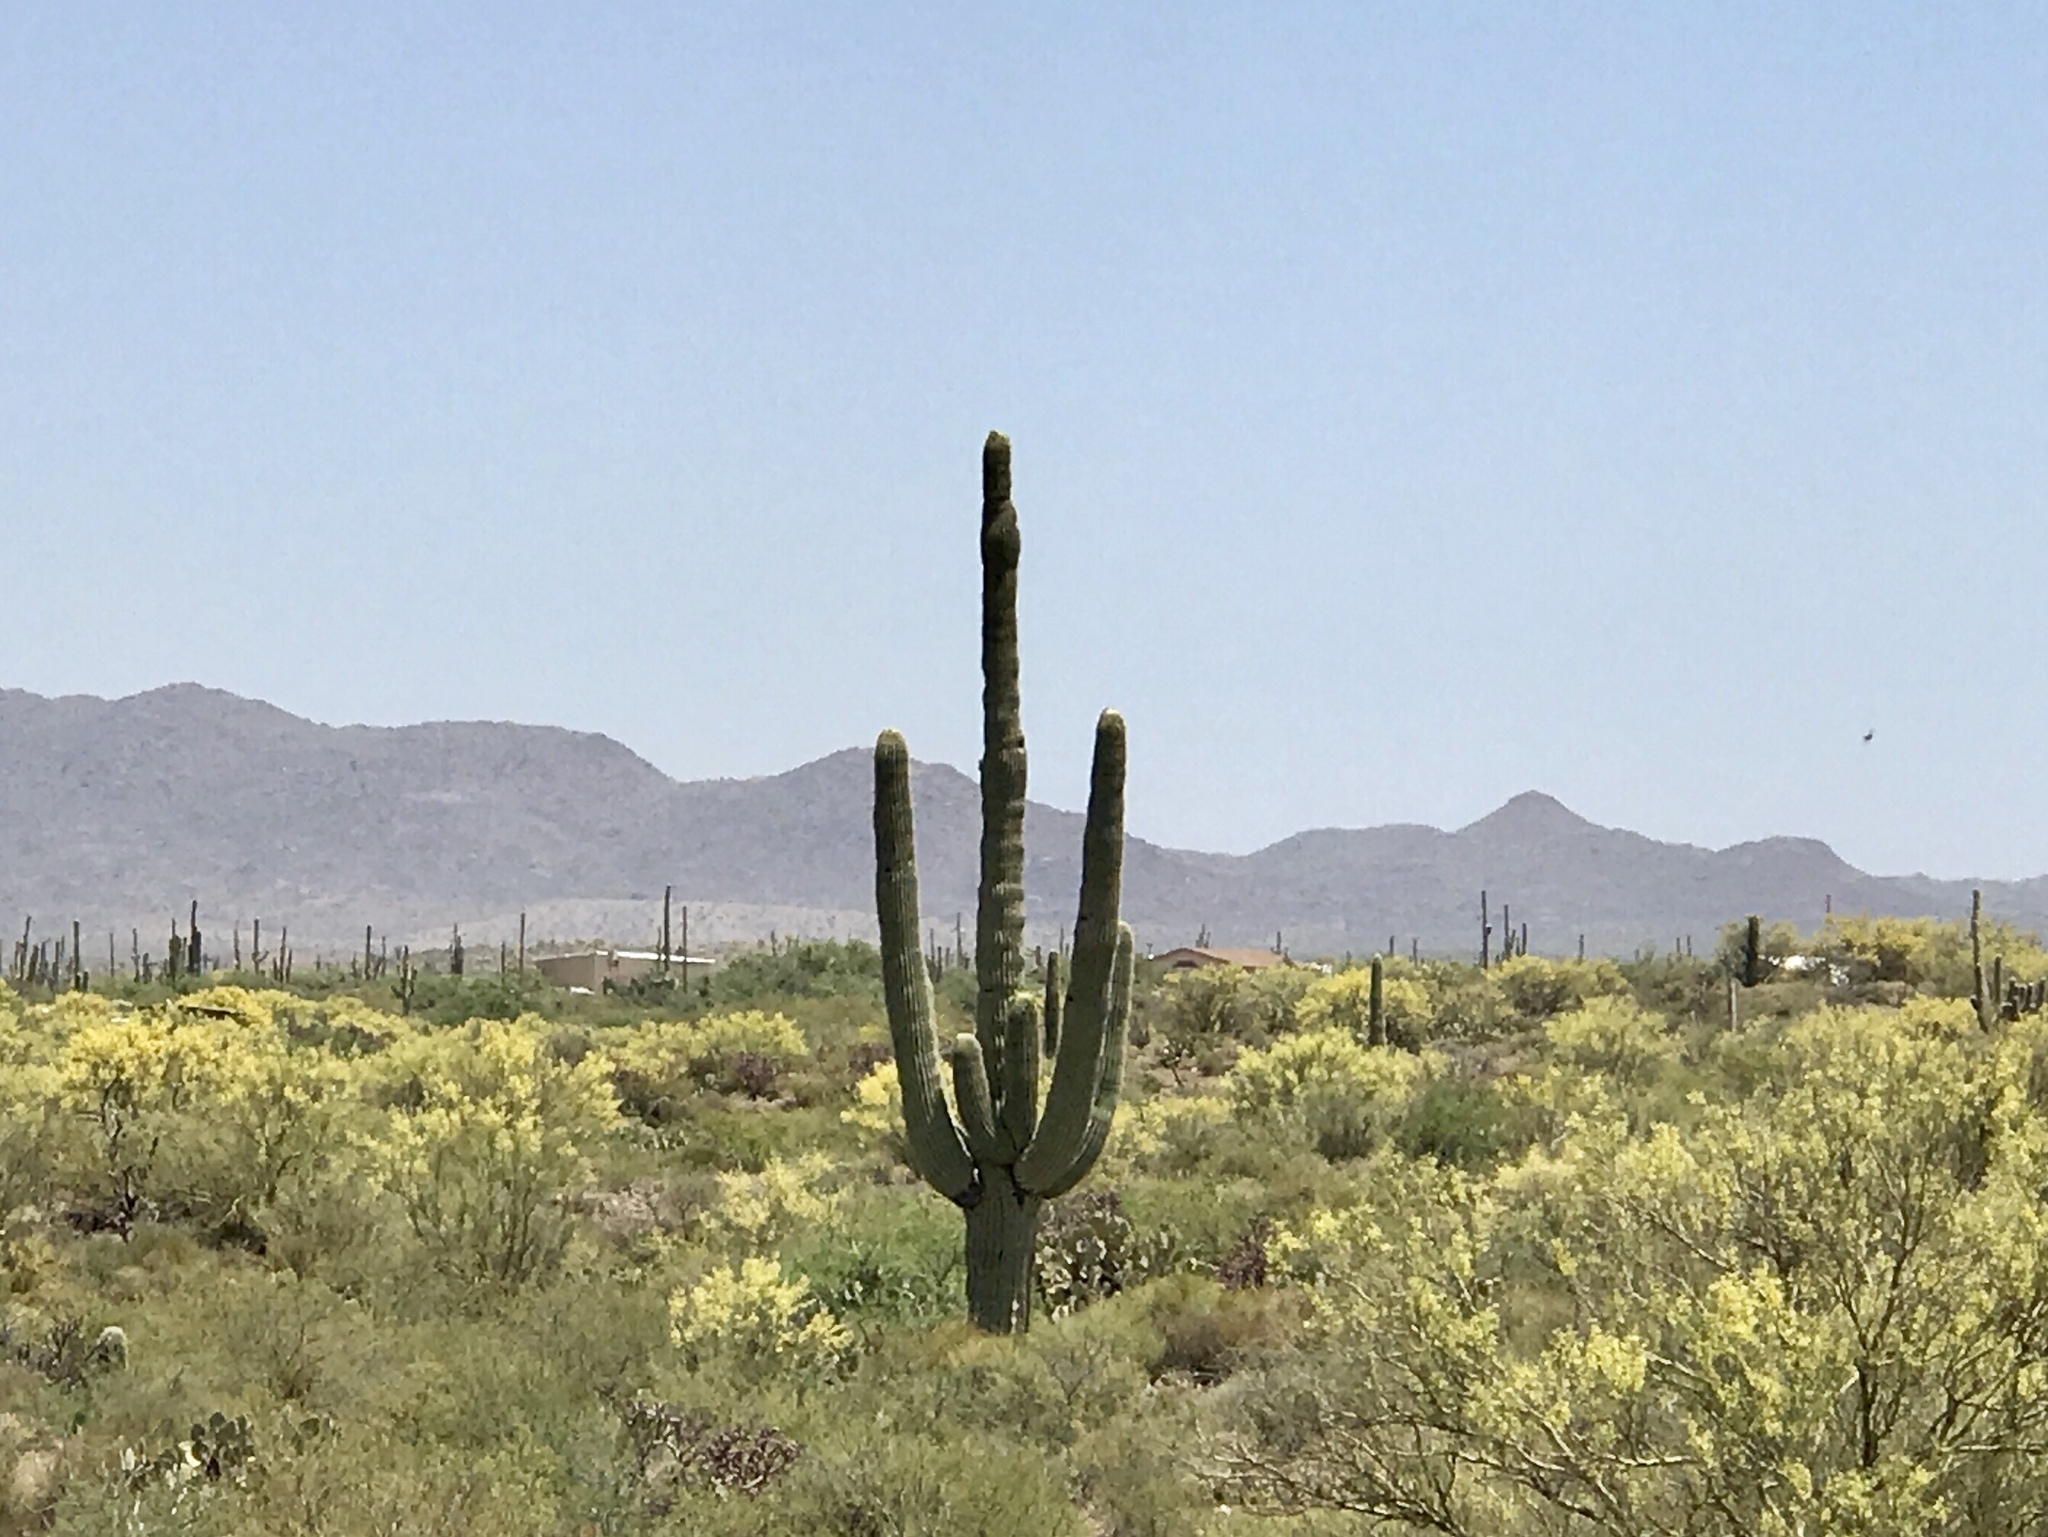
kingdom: Plantae
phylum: Tracheophyta
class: Magnoliopsida
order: Caryophyllales
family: Cactaceae
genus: Carnegiea
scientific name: Carnegiea gigantea
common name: Saguaro
